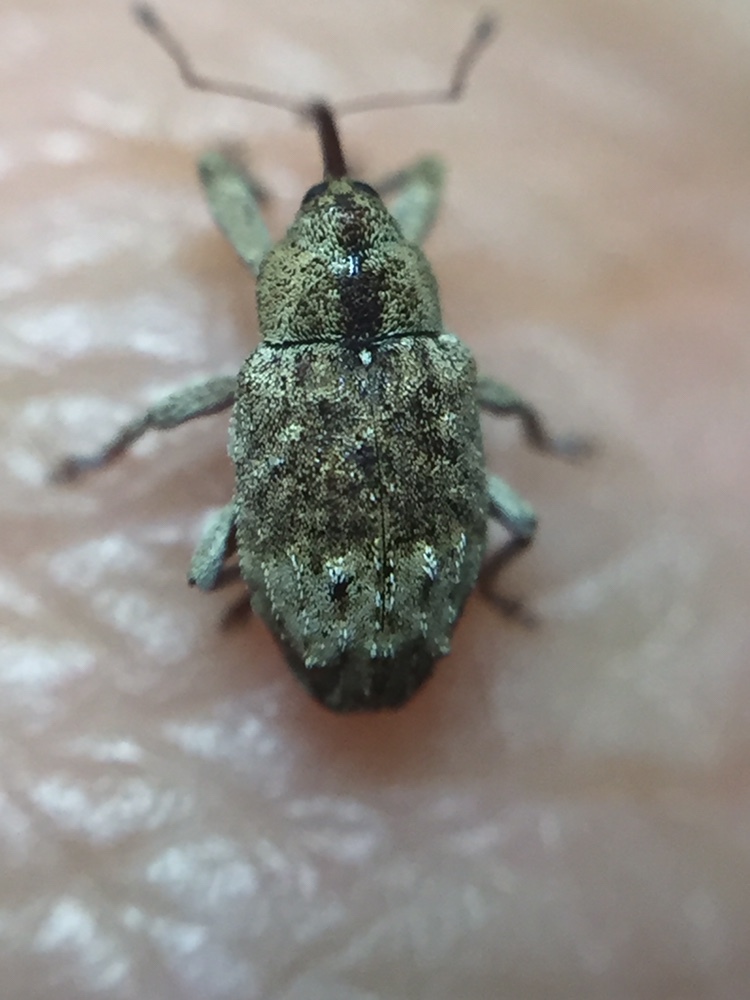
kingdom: Animalia
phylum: Arthropoda
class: Insecta
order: Coleoptera
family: Curculionidae
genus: Emplesis
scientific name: Emplesis bifoveata
